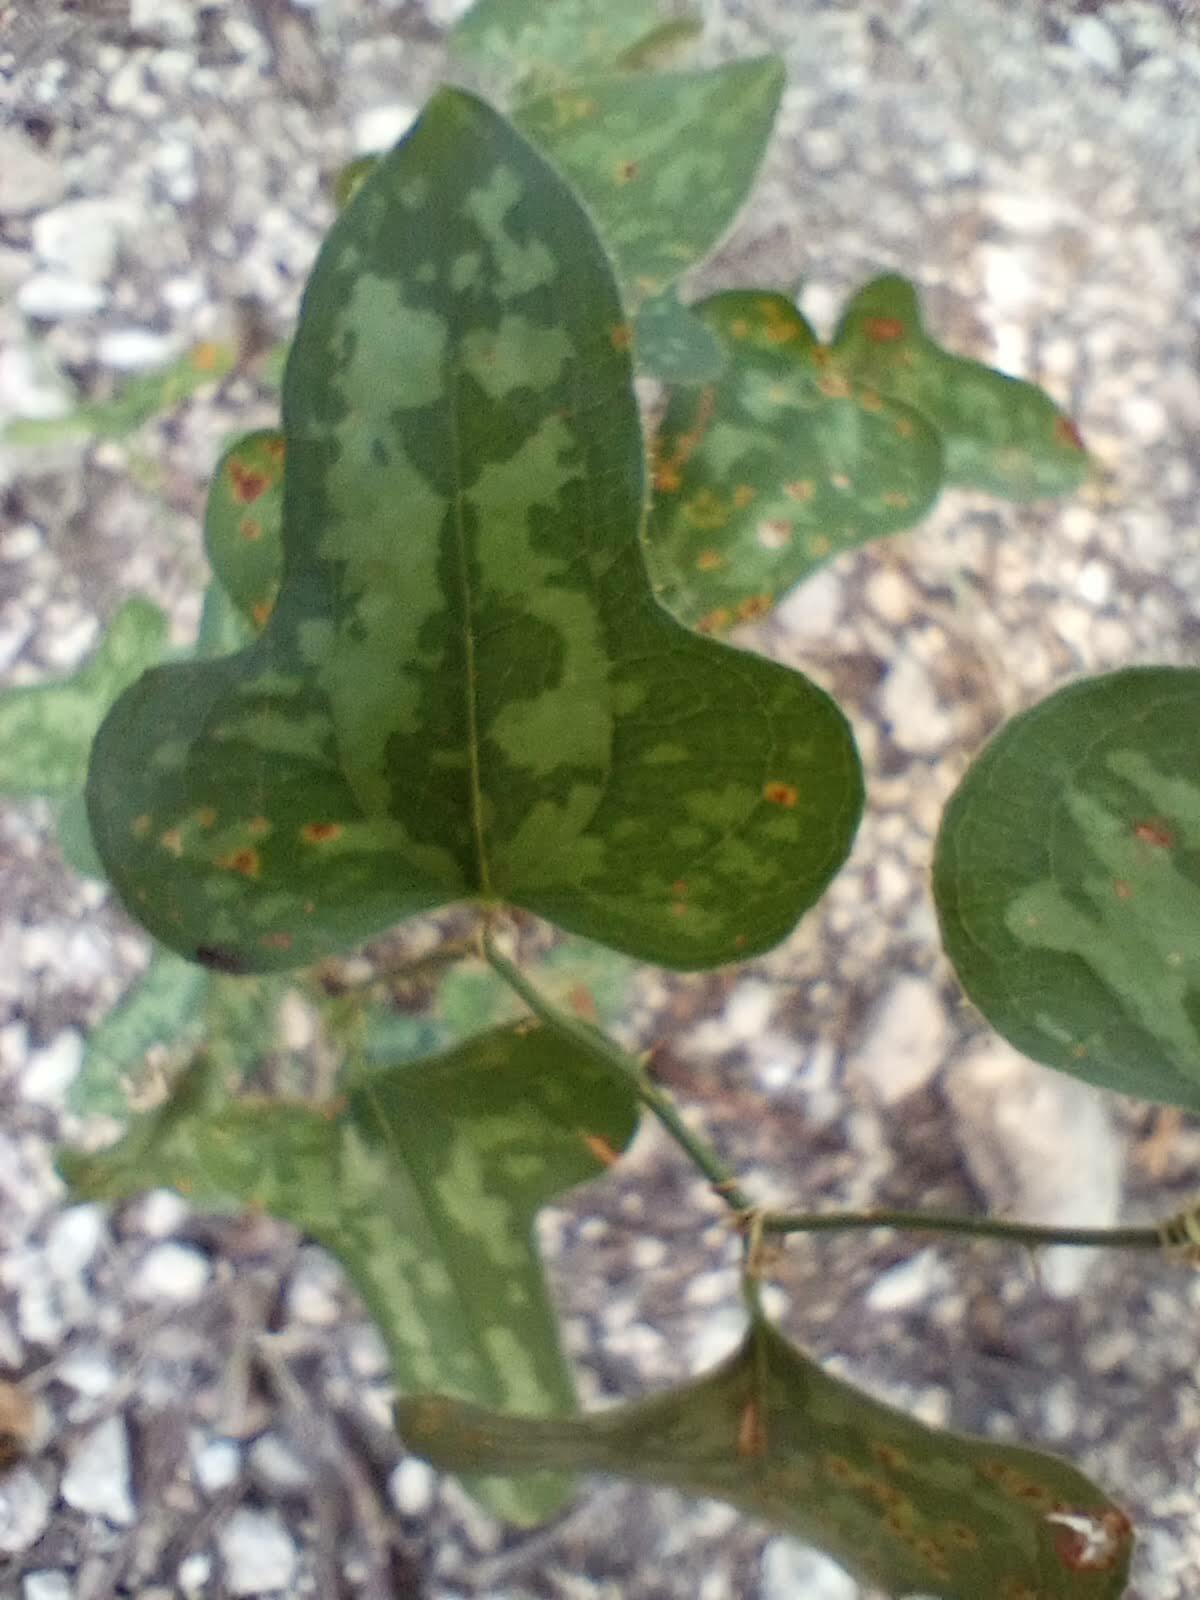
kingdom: Plantae
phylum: Tracheophyta
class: Liliopsida
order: Liliales
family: Smilacaceae
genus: Smilax
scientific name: Smilax bona-nox
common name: Catbrier
